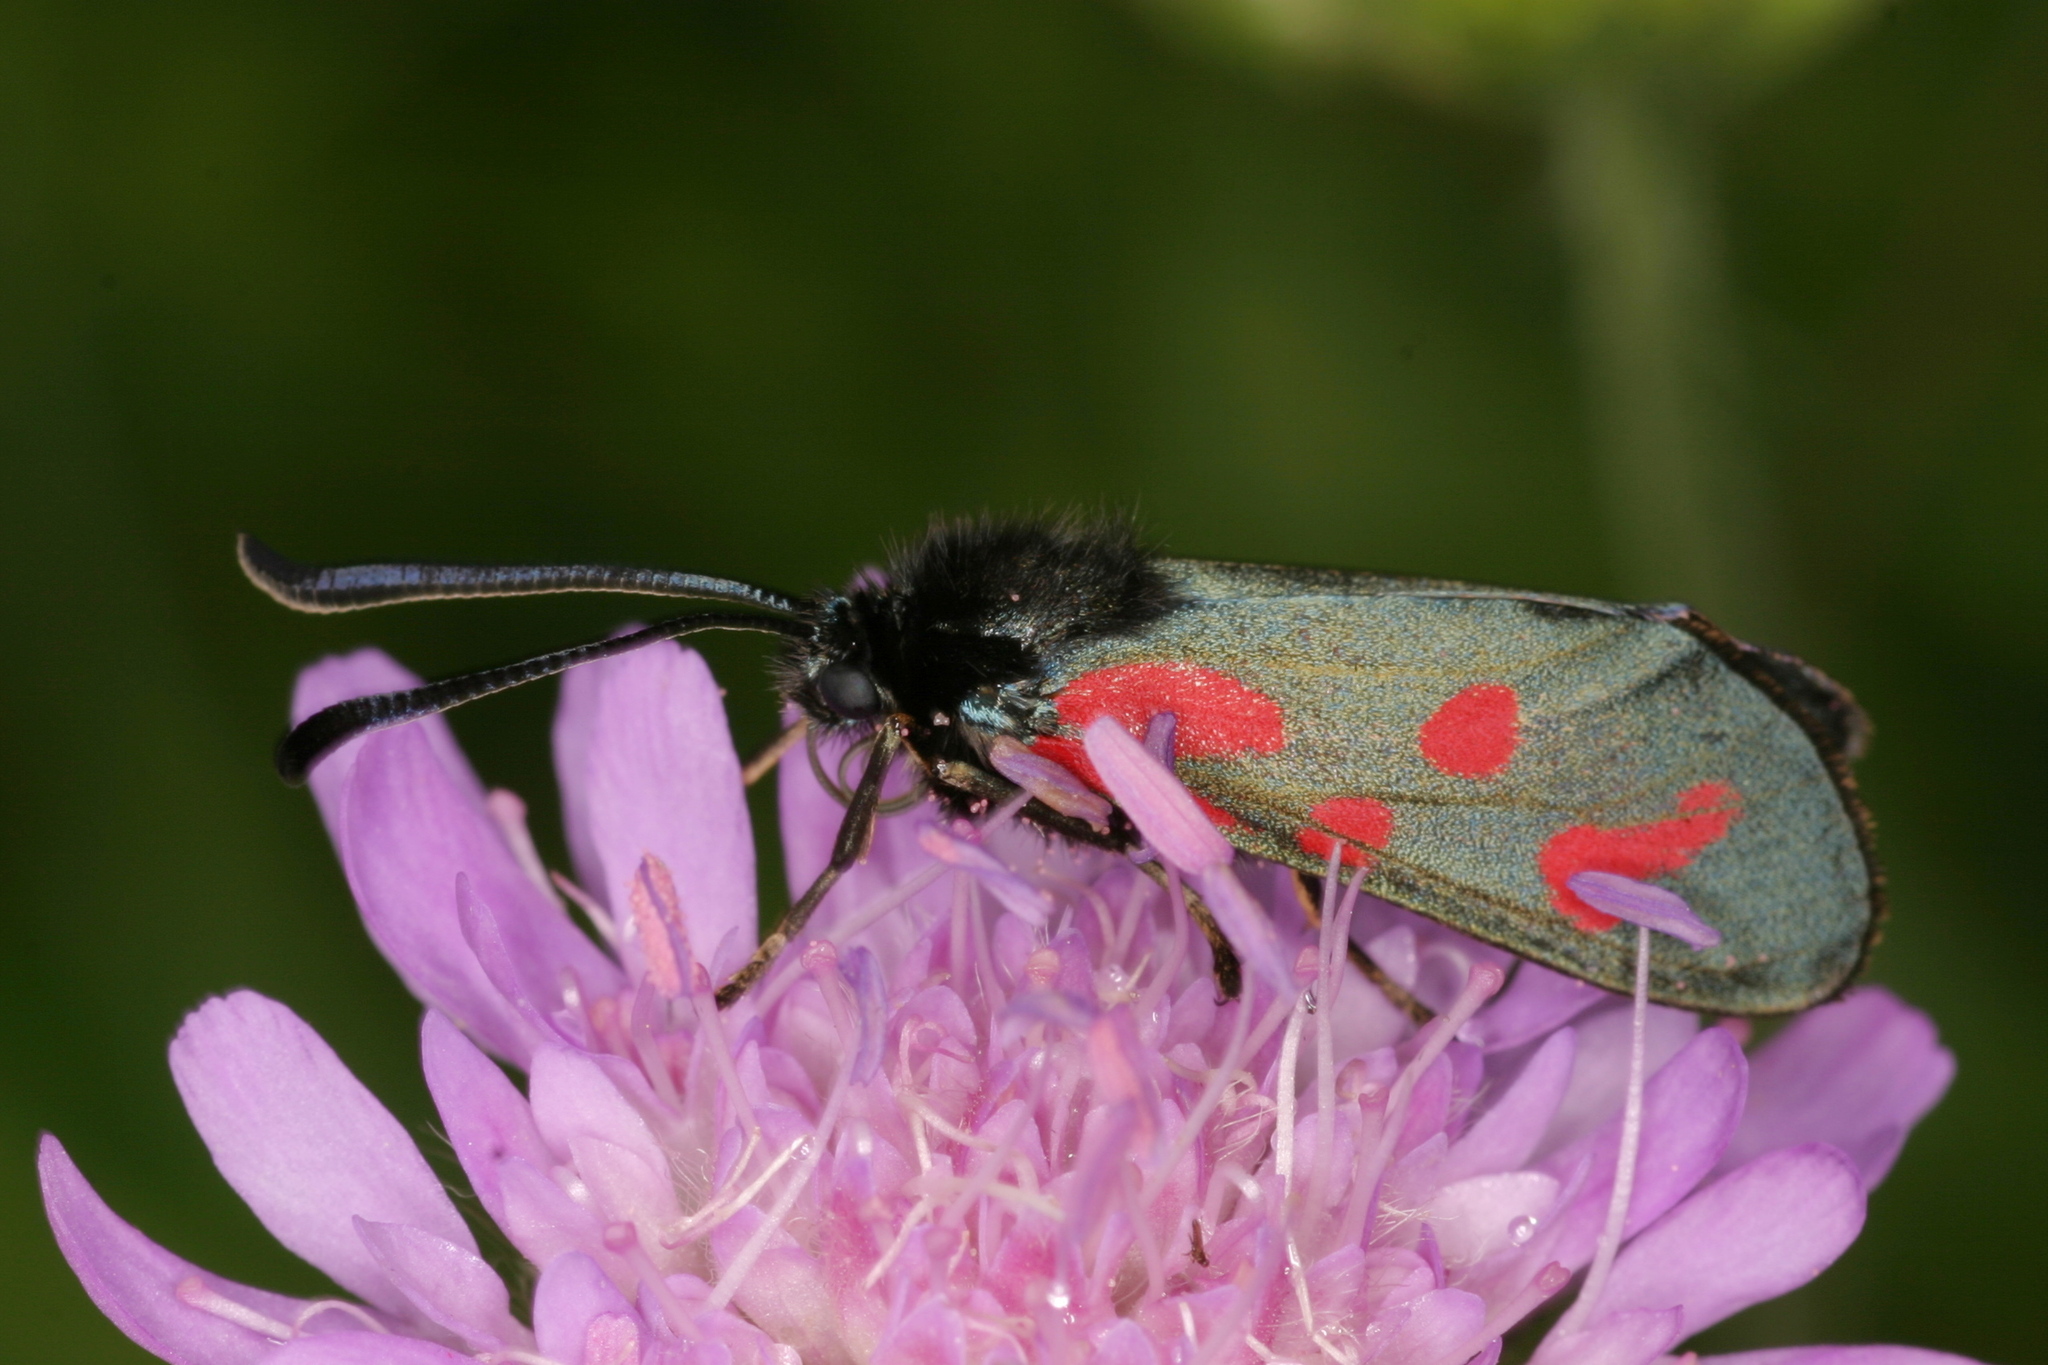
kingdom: Animalia
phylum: Arthropoda
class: Insecta
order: Lepidoptera
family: Zygaenidae
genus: Zygaena
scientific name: Zygaena loti
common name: Slender scotch burnet
